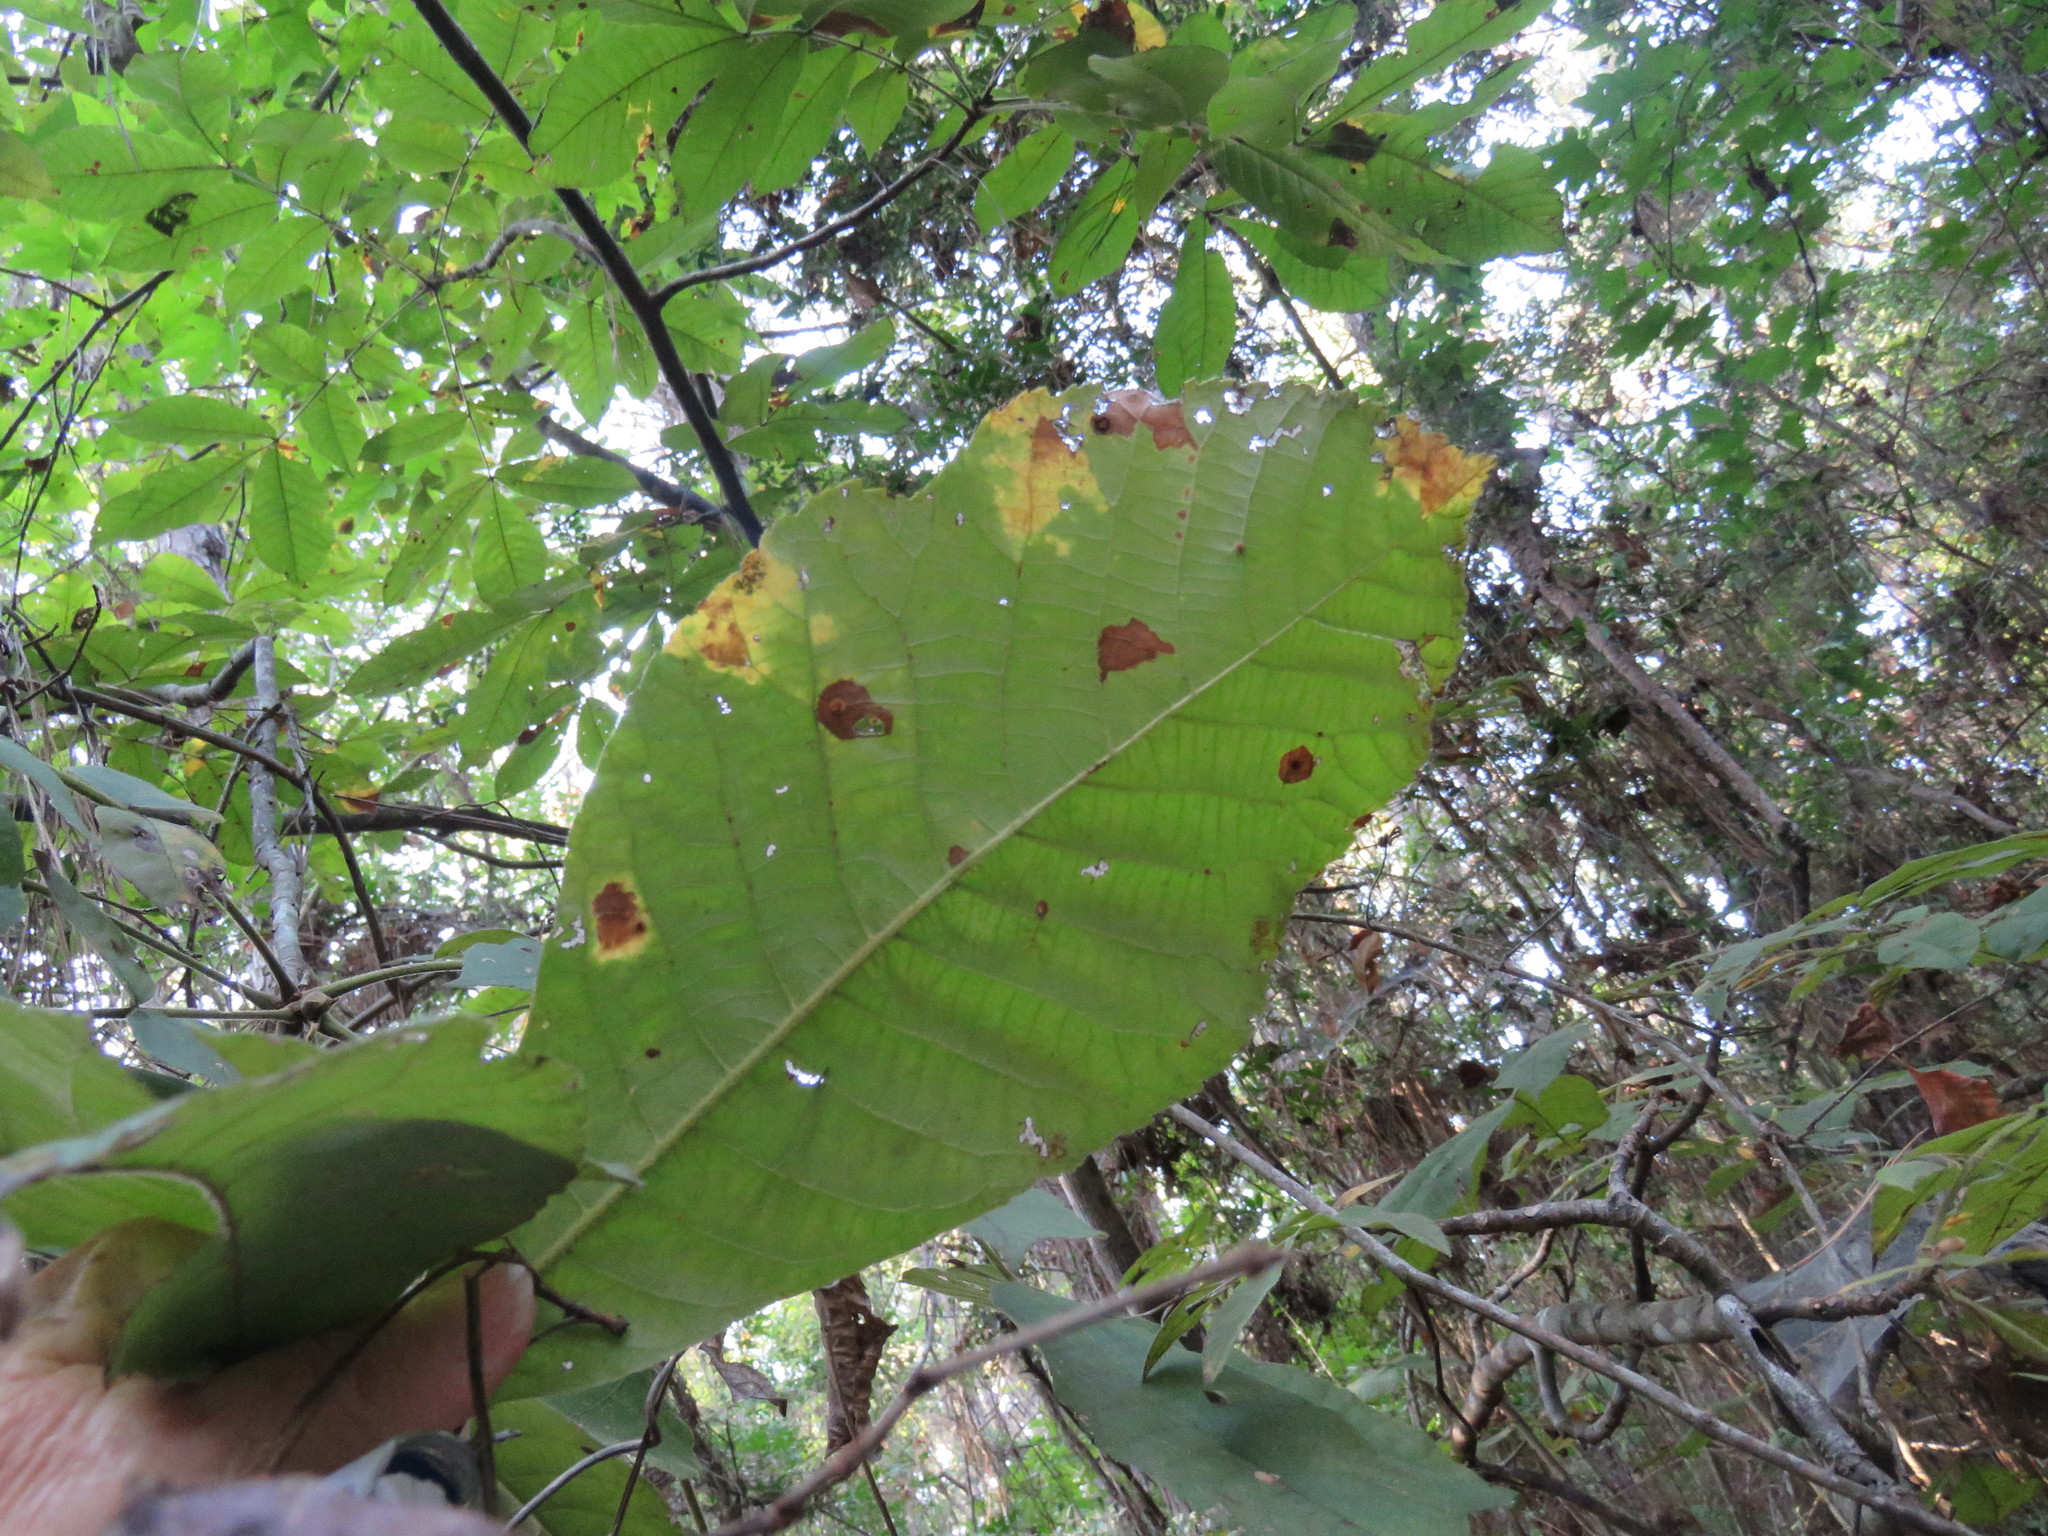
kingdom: Plantae
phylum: Tracheophyta
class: Magnoliopsida
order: Fagales
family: Juglandaceae
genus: Carya
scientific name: Carya cordiformis
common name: Bitternut hickory
